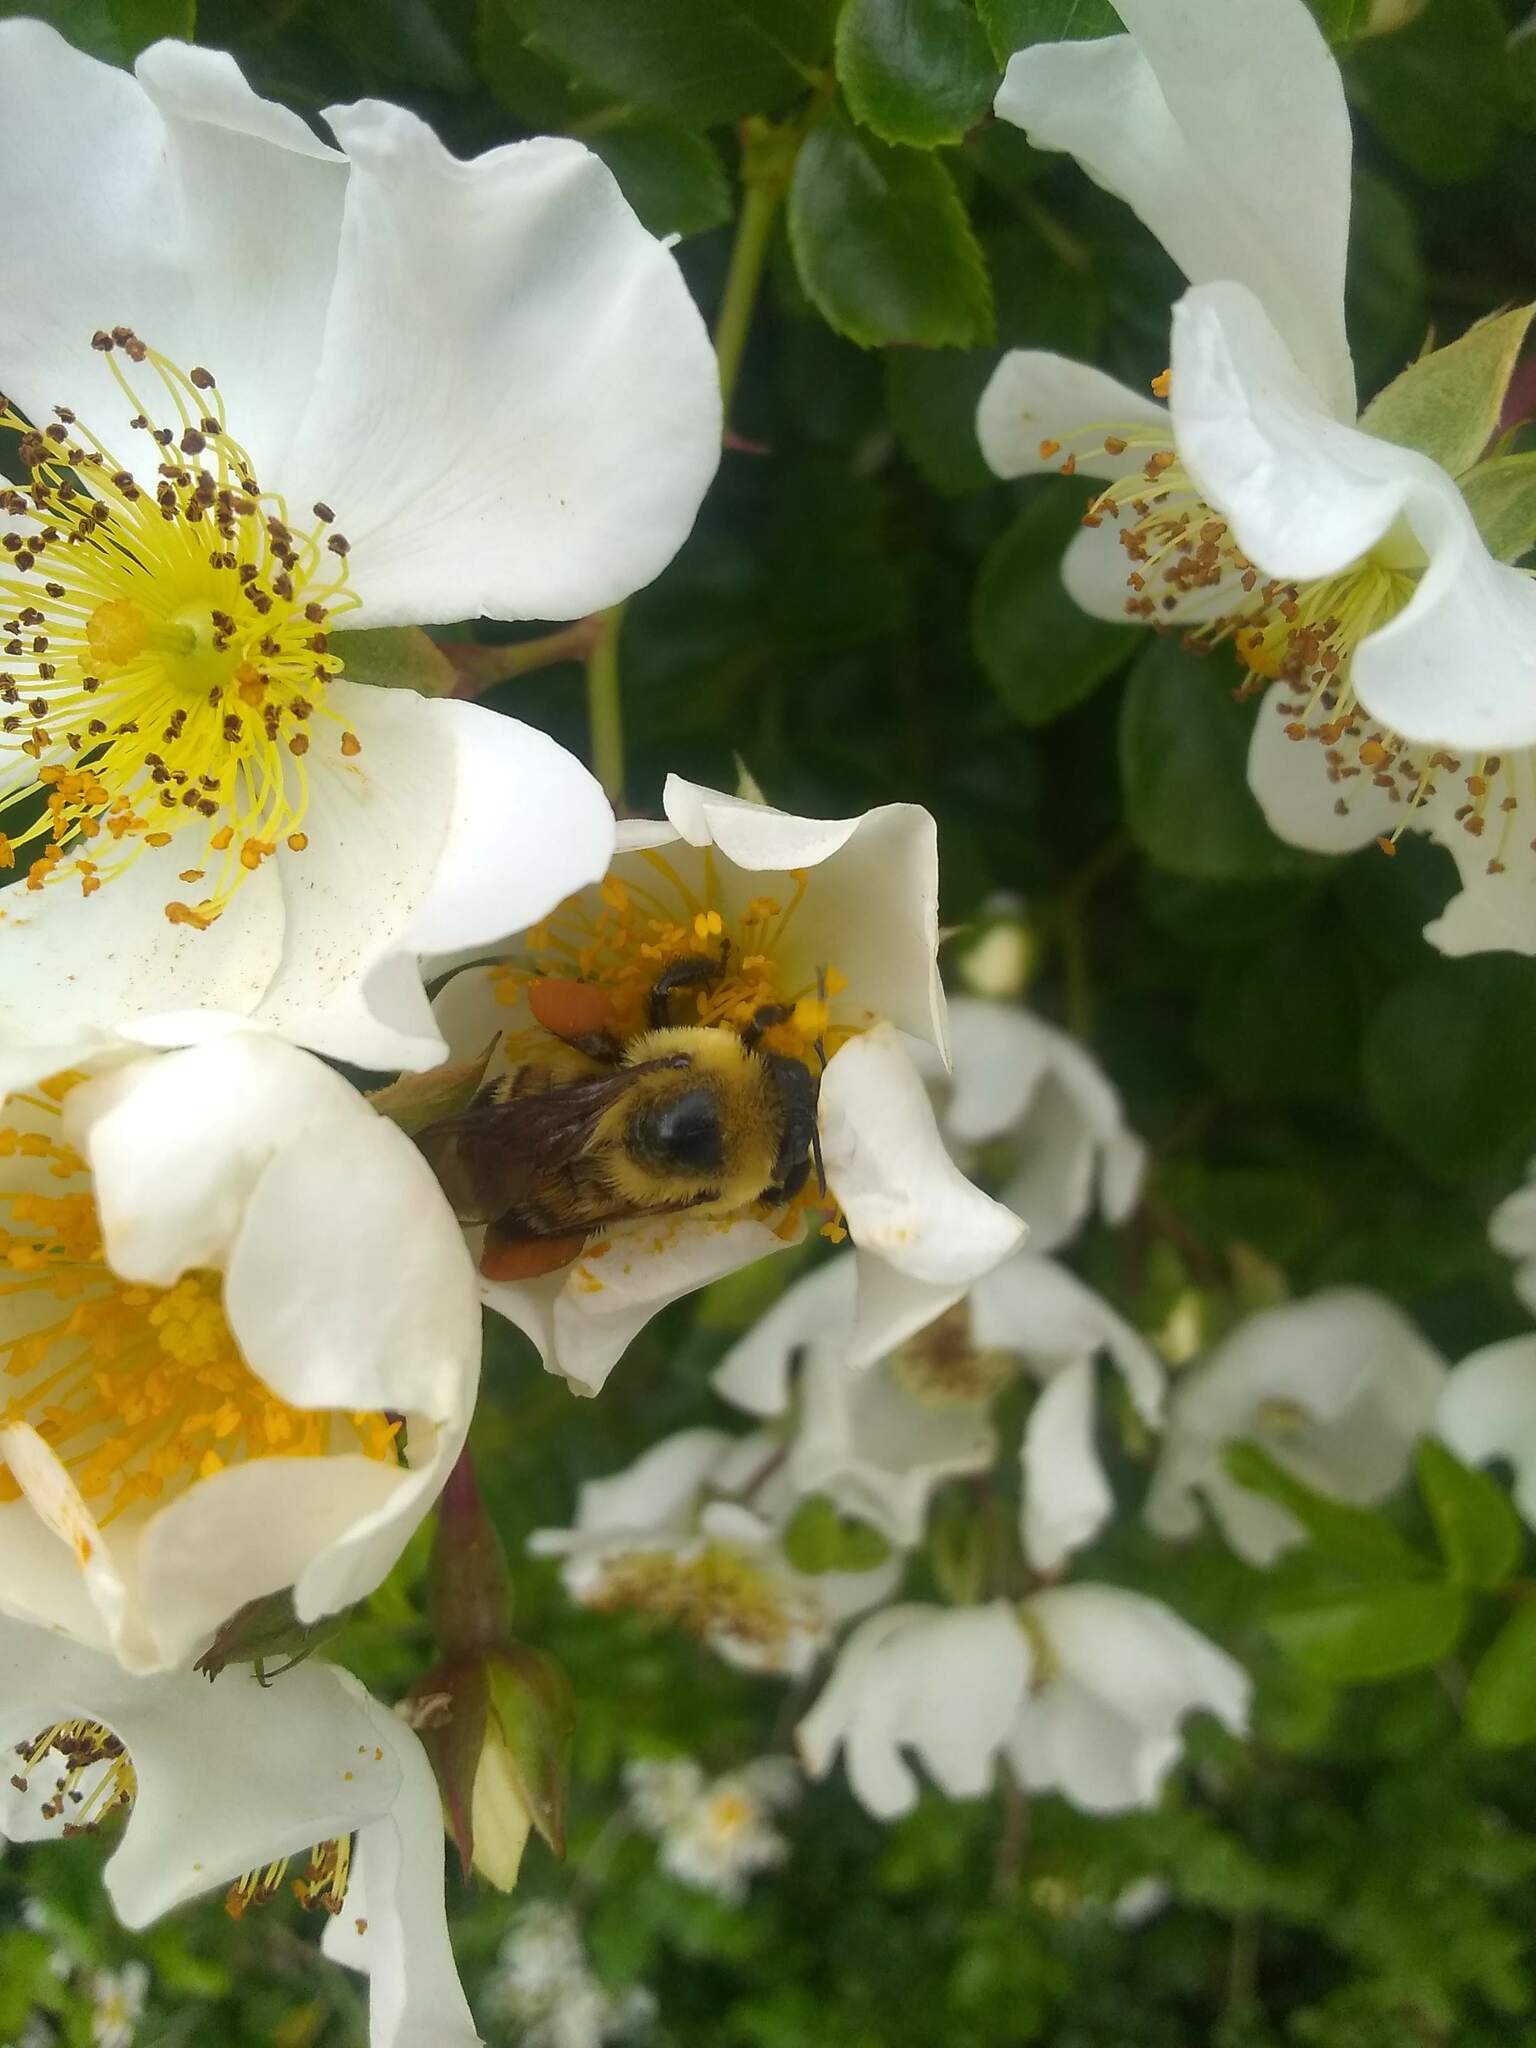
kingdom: Animalia
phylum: Arthropoda
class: Insecta
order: Hymenoptera
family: Apidae
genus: Bombus
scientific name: Bombus griseocollis
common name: Brown-belted bumble bee
